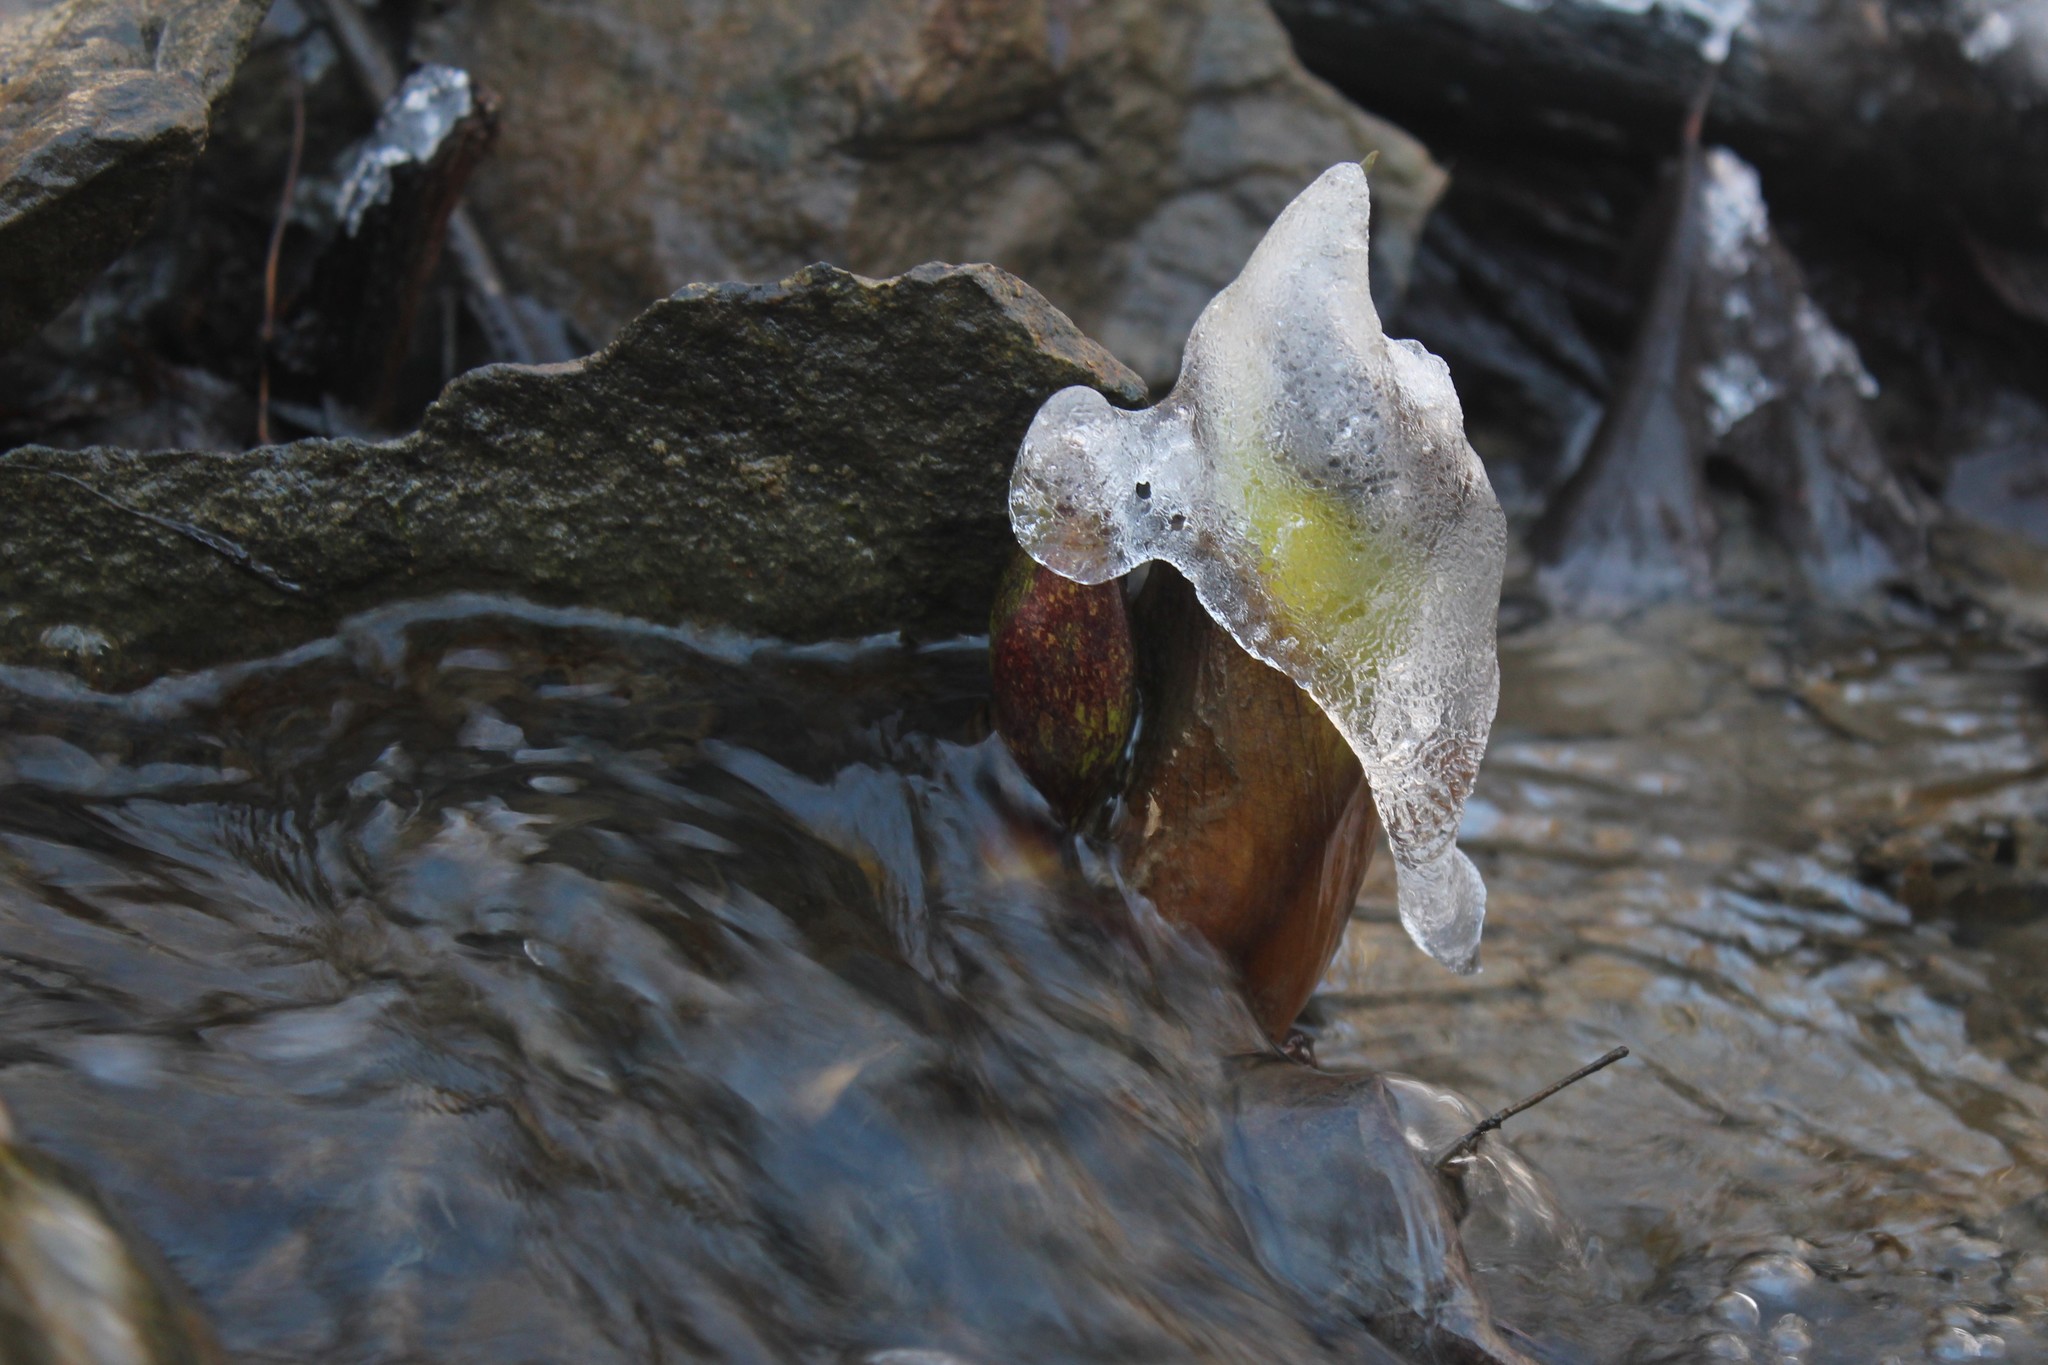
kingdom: Plantae
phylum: Tracheophyta
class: Liliopsida
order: Alismatales
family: Araceae
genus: Symplocarpus
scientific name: Symplocarpus foetidus
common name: Eastern skunk cabbage
